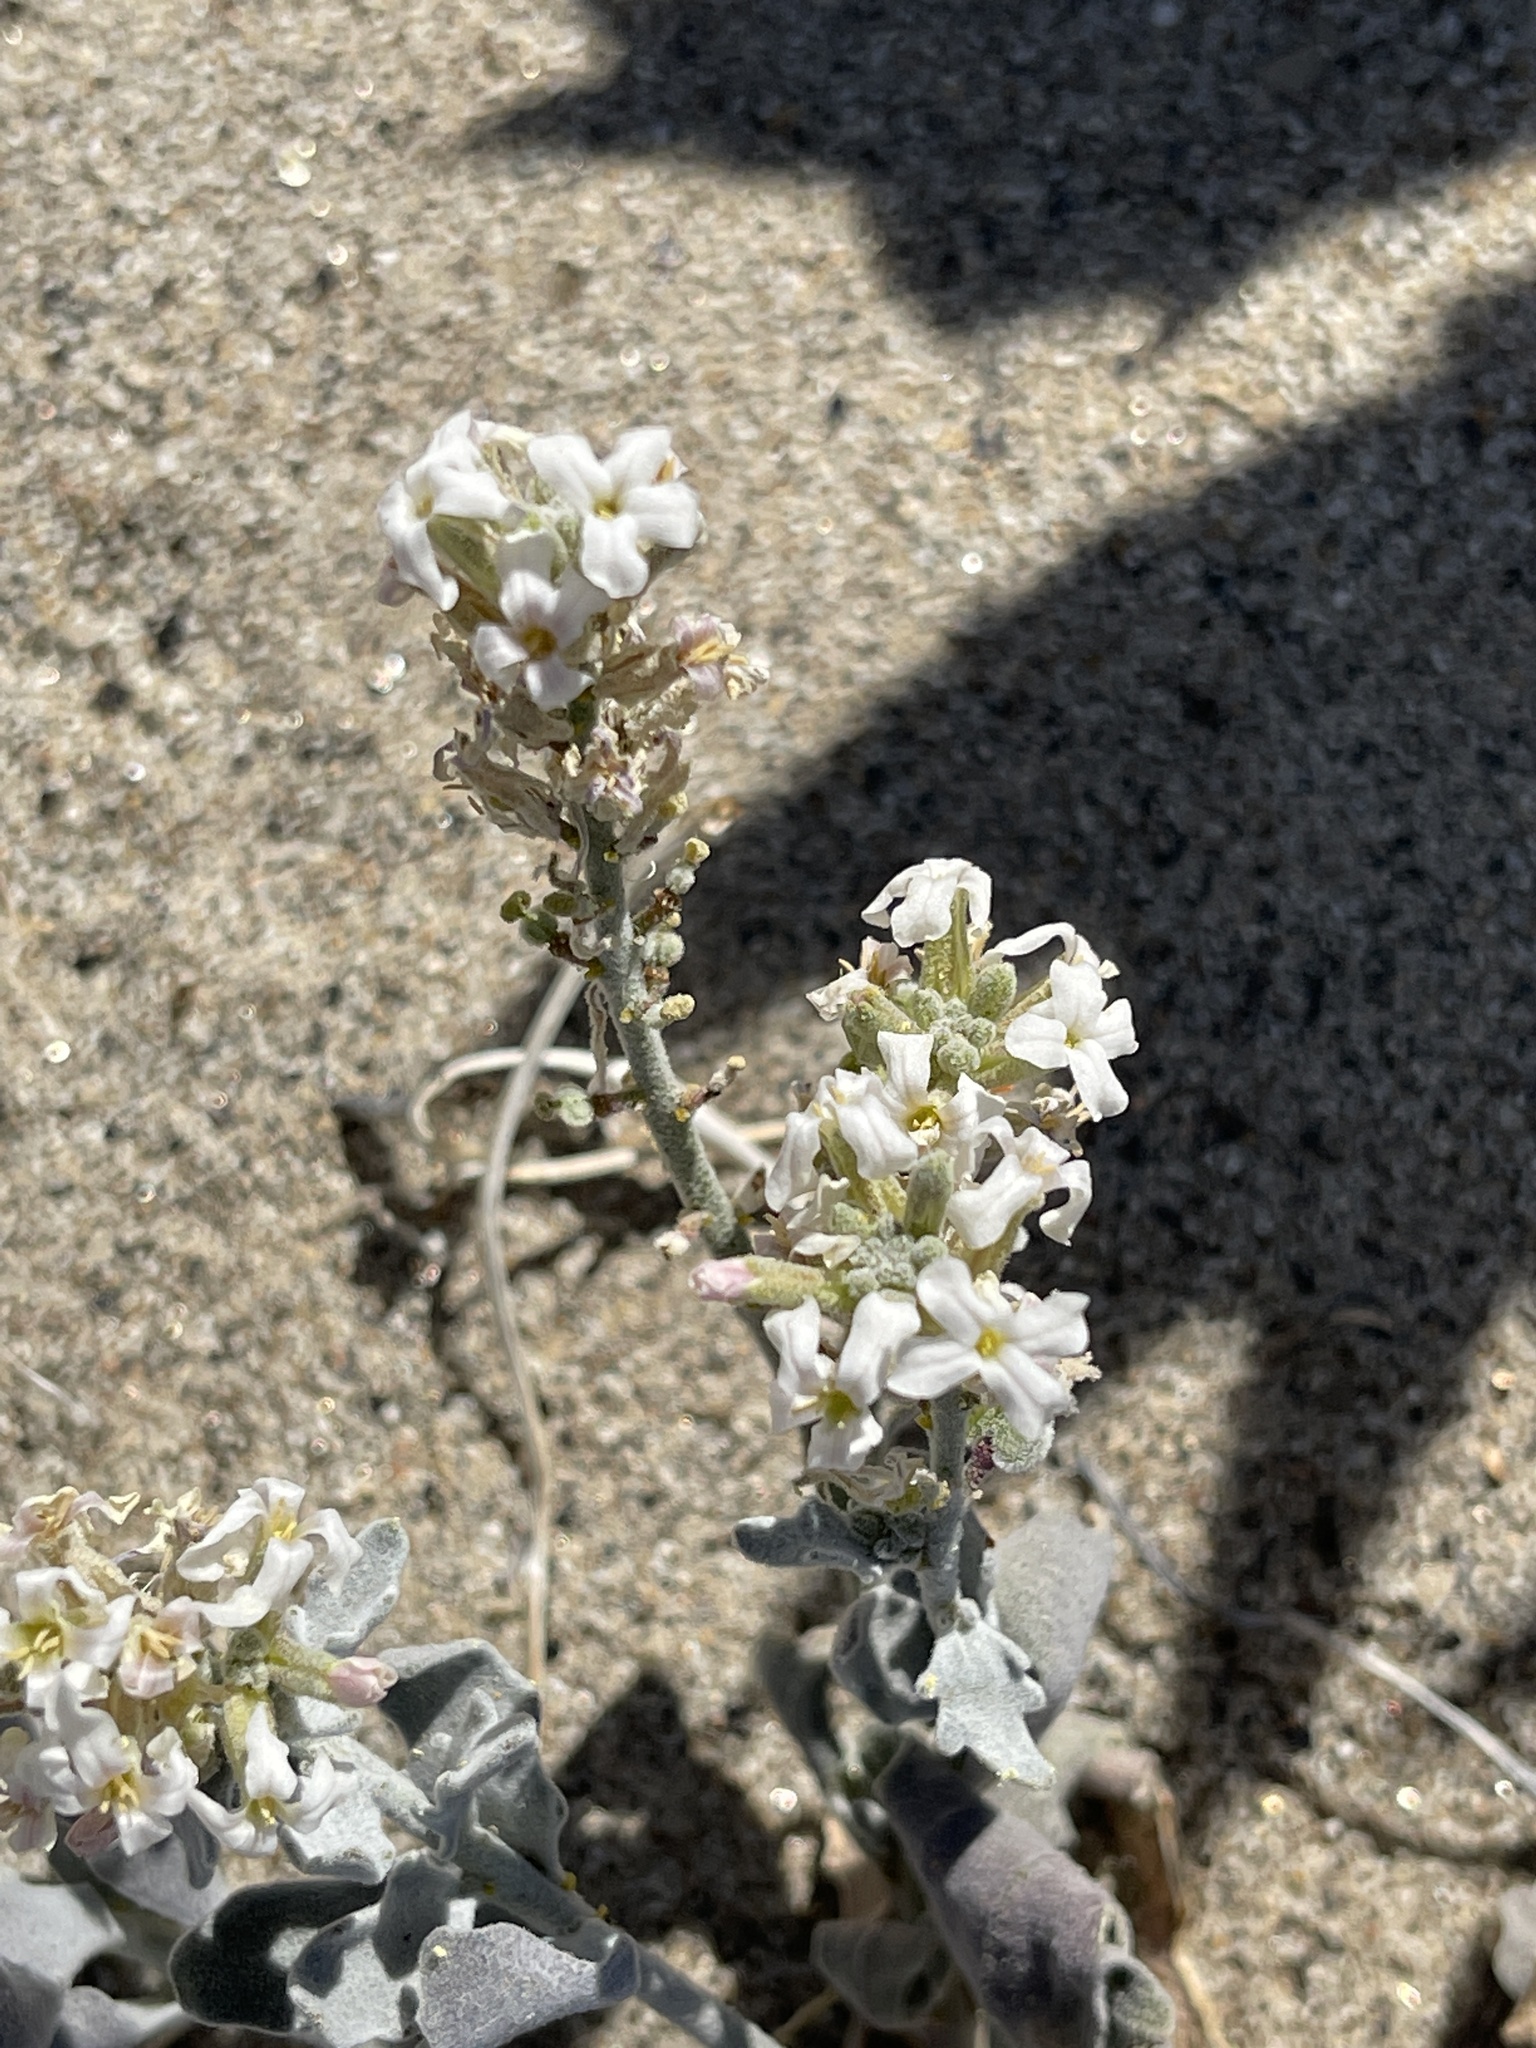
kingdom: Plantae
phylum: Tracheophyta
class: Magnoliopsida
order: Brassicales
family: Brassicaceae
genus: Dithyrea
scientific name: Dithyrea californica
